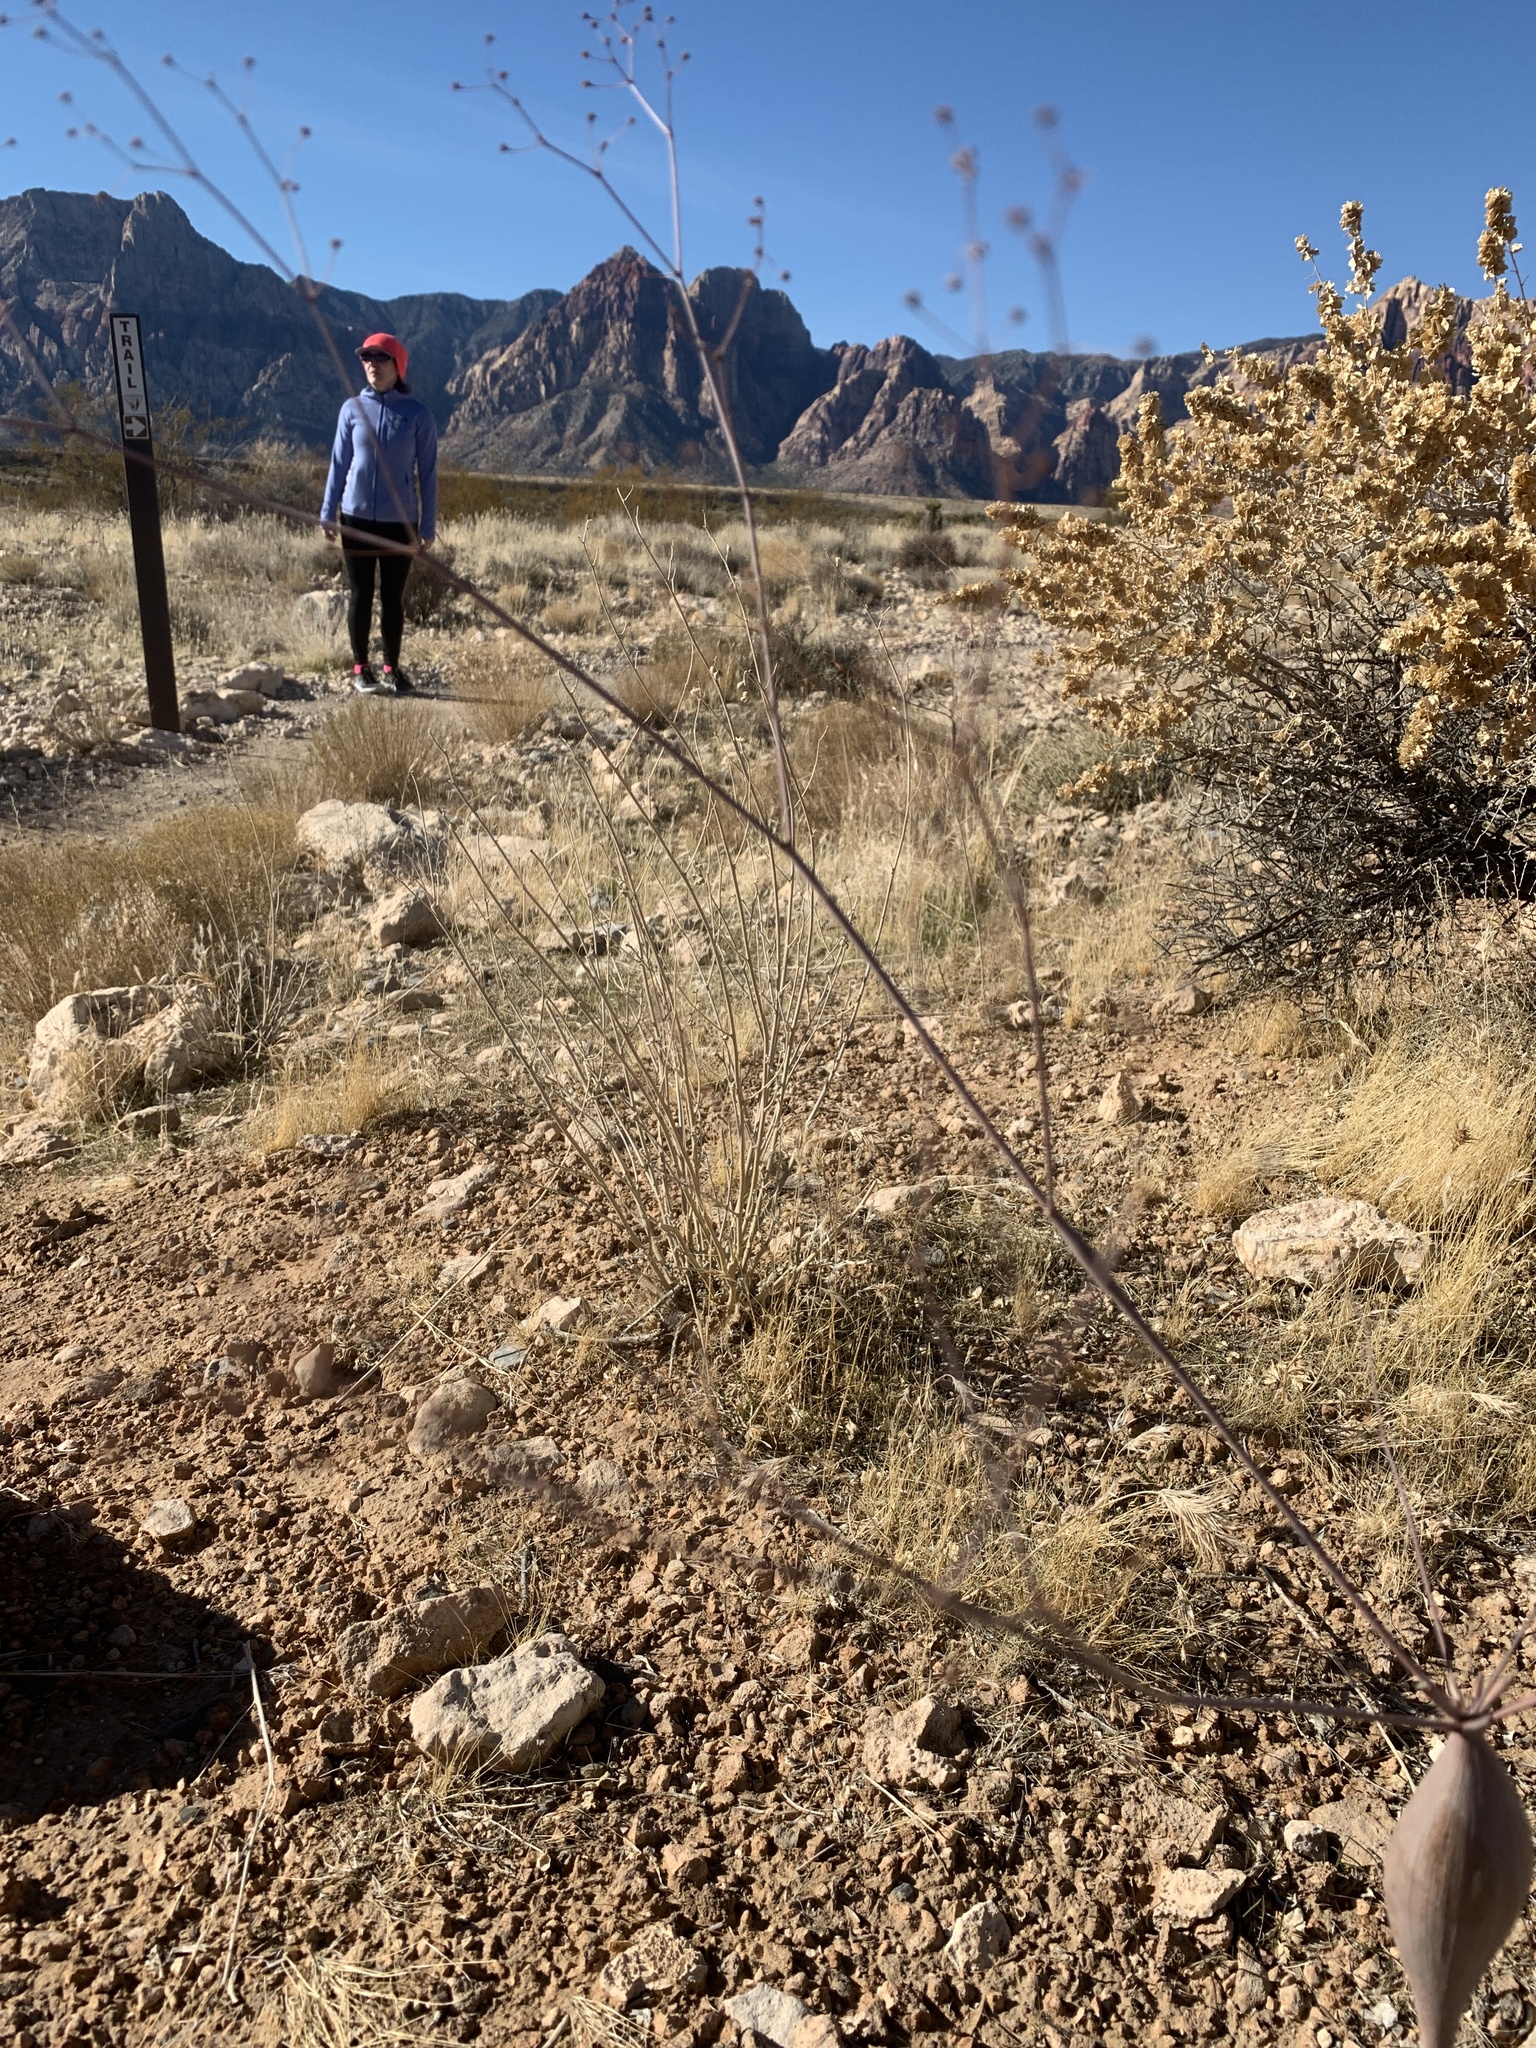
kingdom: Plantae
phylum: Tracheophyta
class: Magnoliopsida
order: Caryophyllales
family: Polygonaceae
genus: Eriogonum
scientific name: Eriogonum inflatum
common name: Desert trumpet
